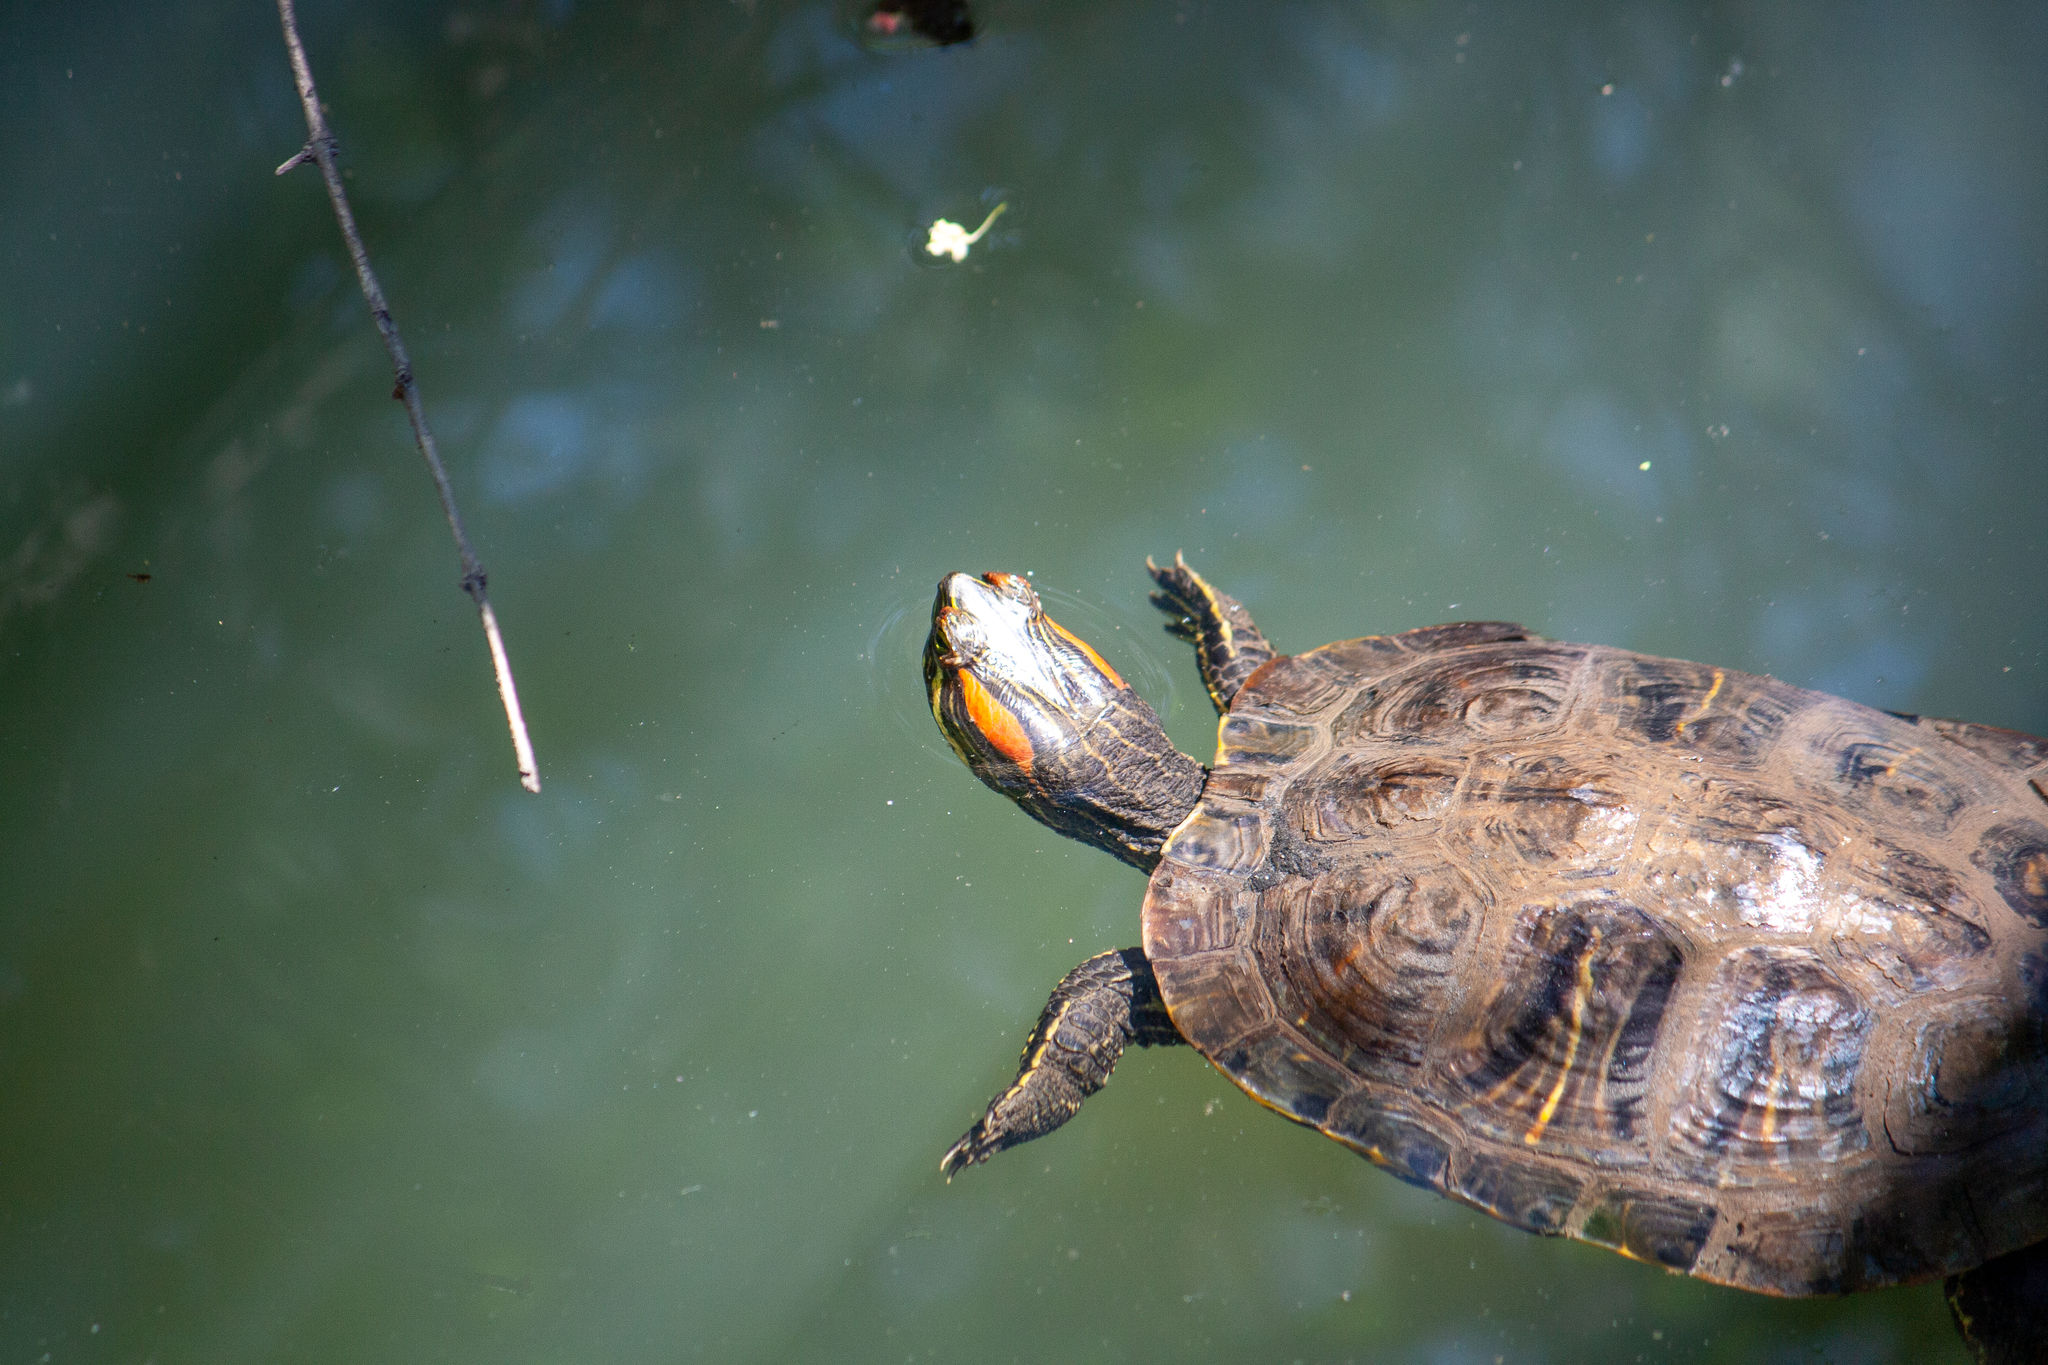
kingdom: Animalia
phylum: Chordata
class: Testudines
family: Emydidae
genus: Trachemys
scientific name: Trachemys scripta
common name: Slider
